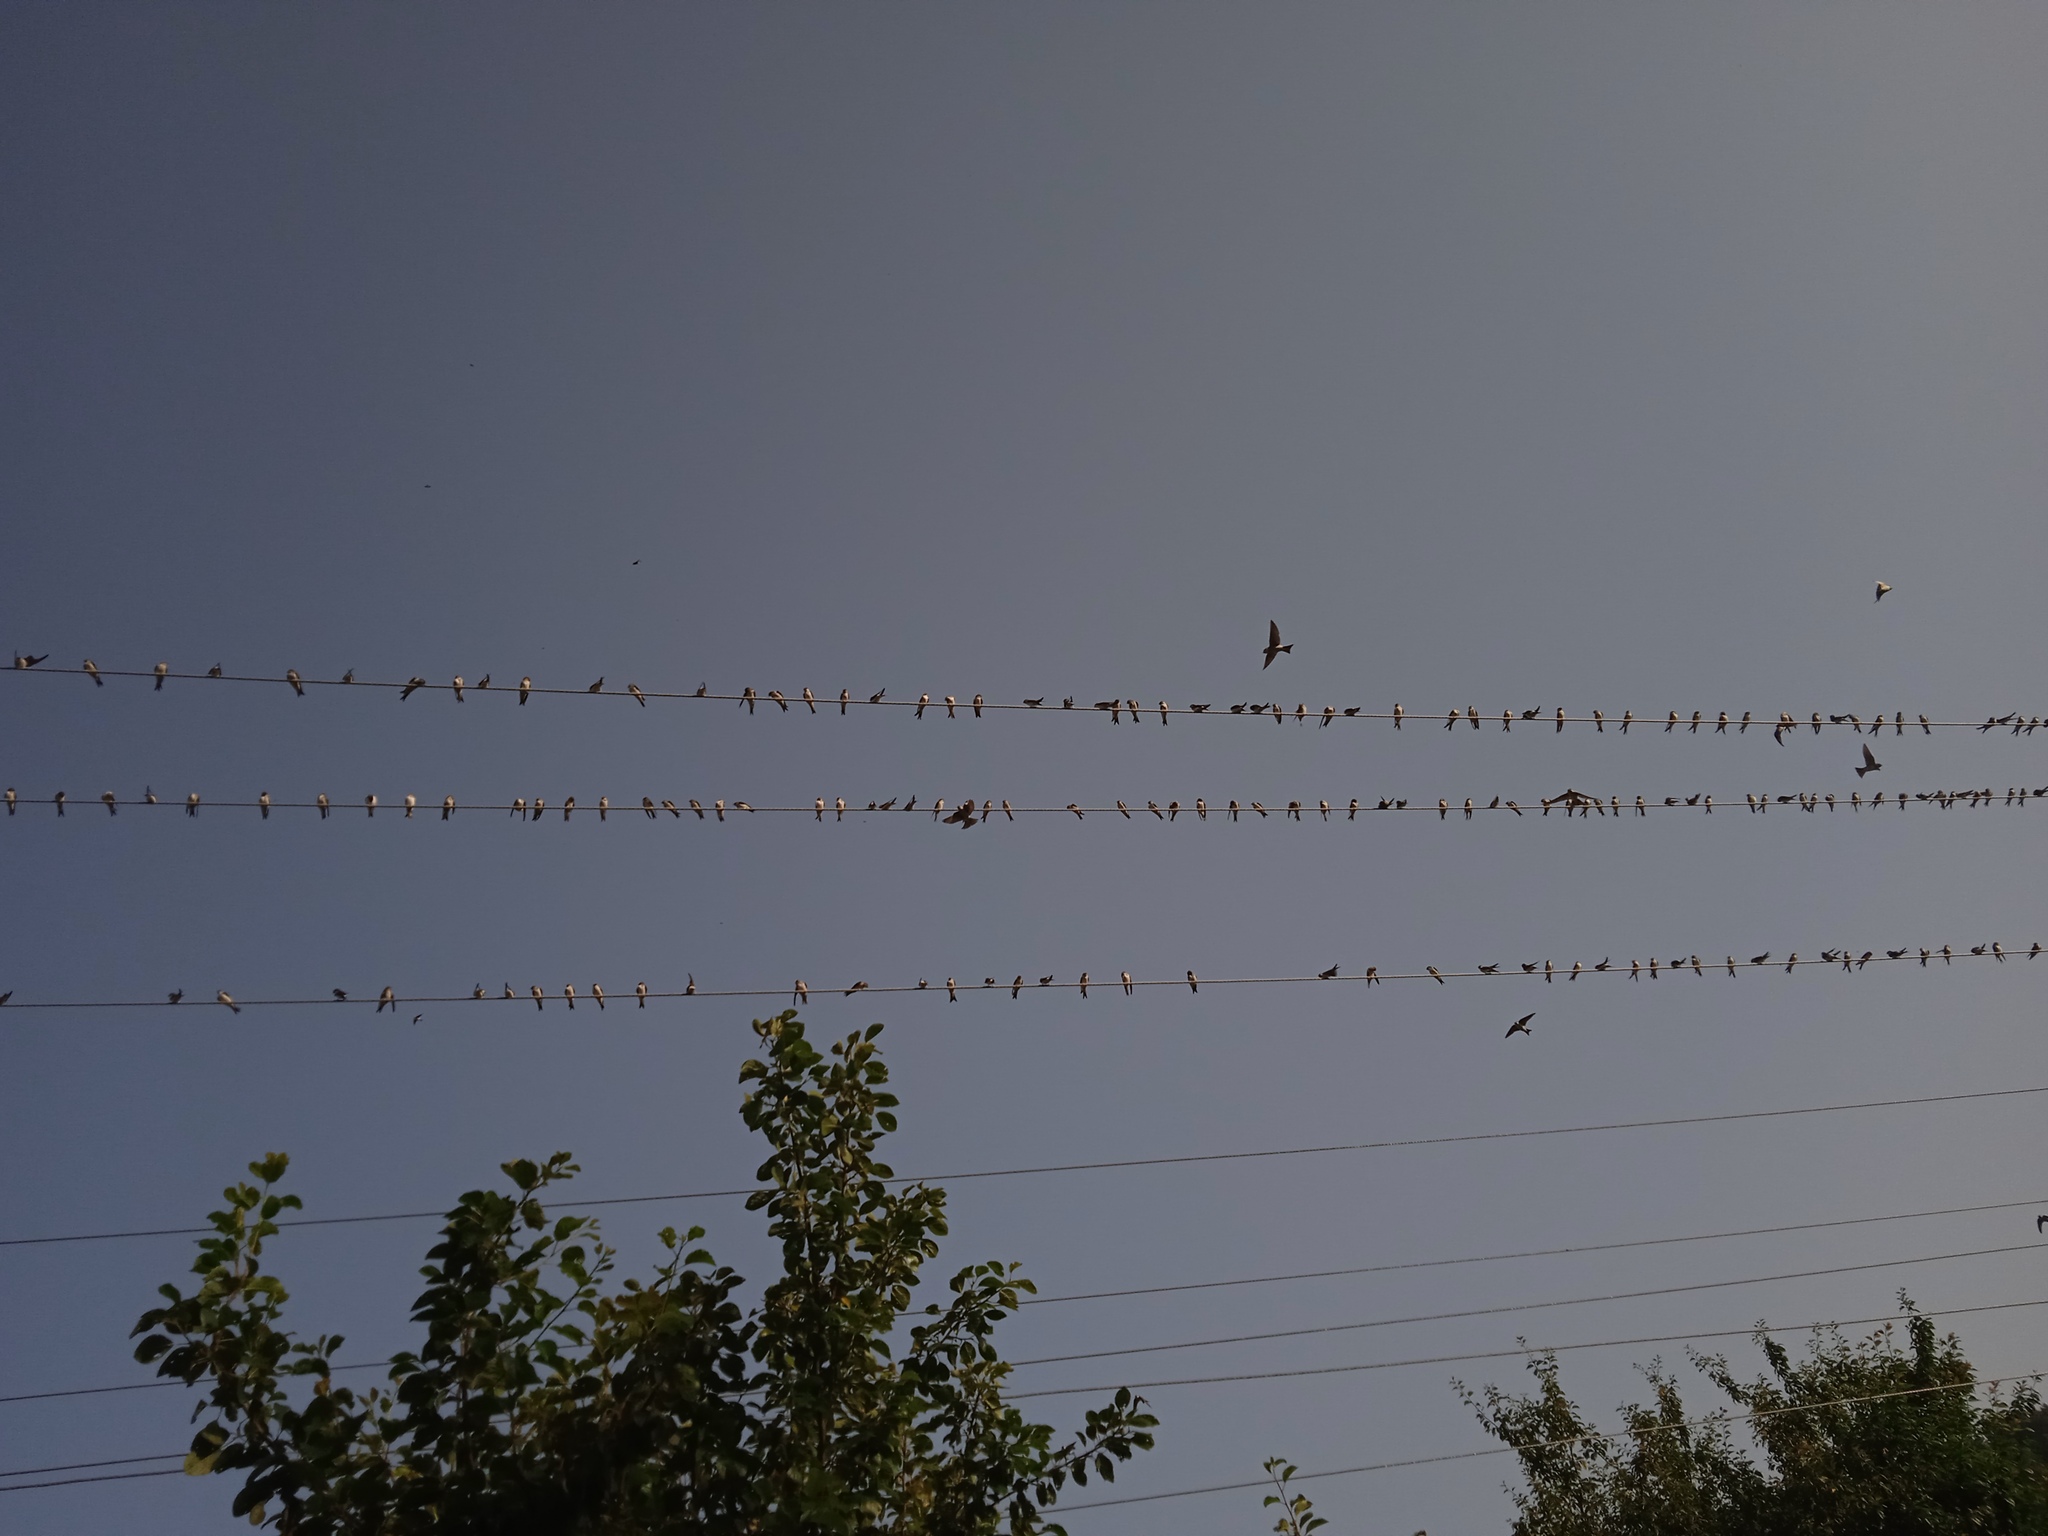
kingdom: Animalia
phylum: Chordata
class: Aves
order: Passeriformes
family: Hirundinidae
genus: Delichon
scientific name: Delichon urbicum
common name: Common house martin
